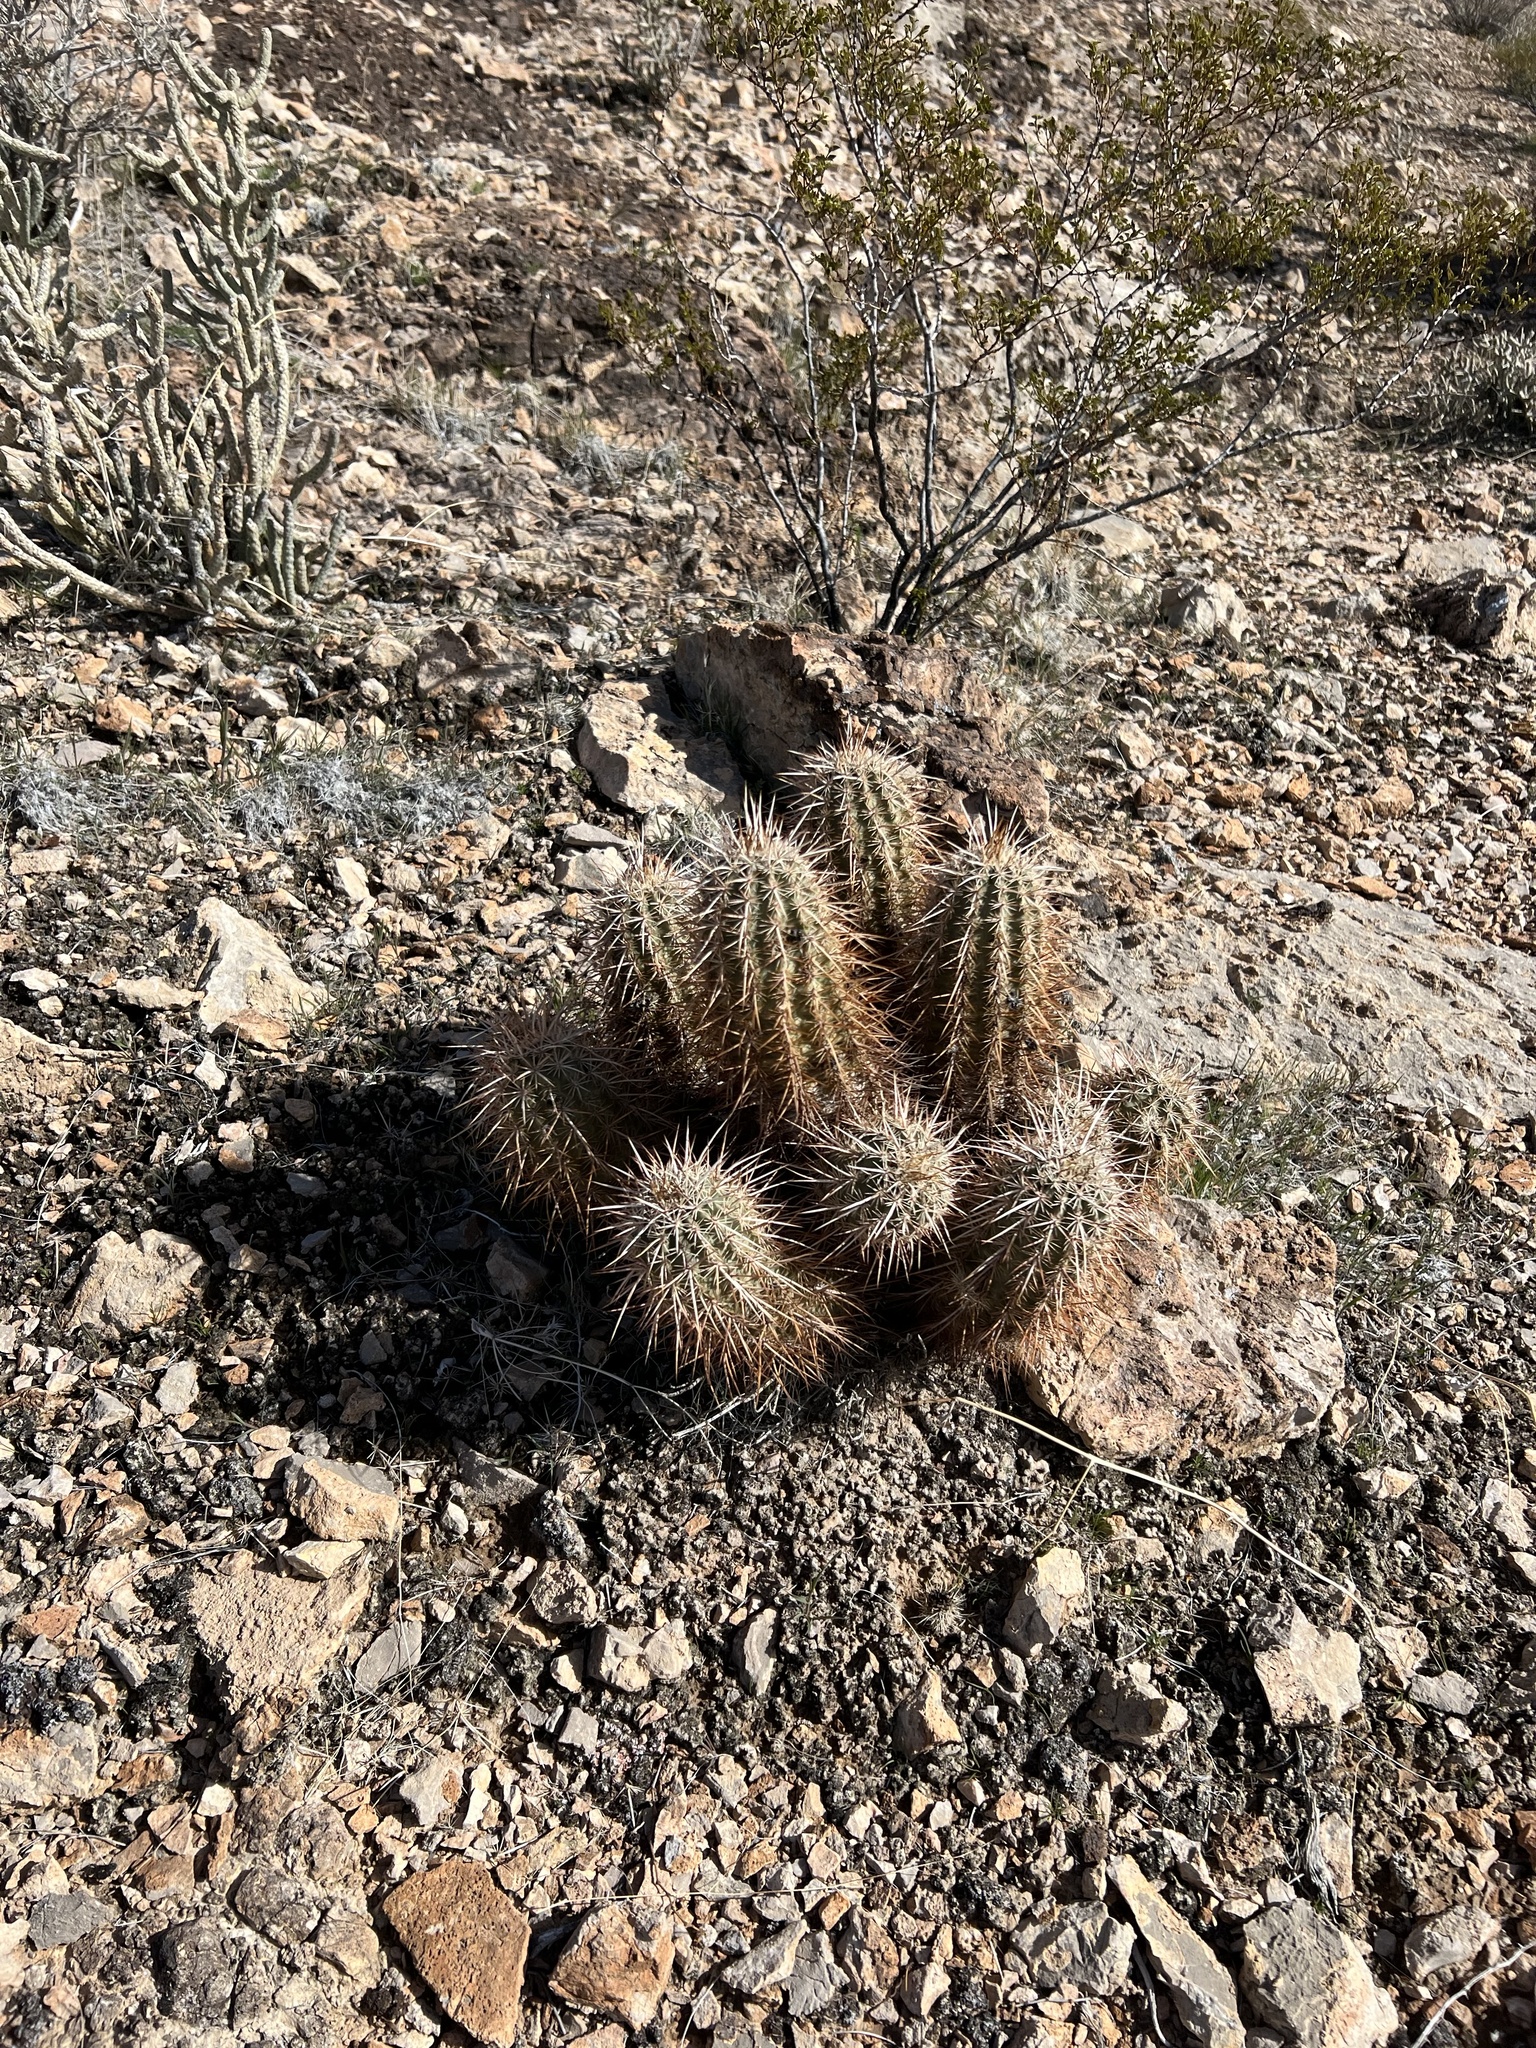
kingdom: Plantae
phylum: Tracheophyta
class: Magnoliopsida
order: Caryophyllales
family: Cactaceae
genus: Echinocereus
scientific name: Echinocereus engelmannii
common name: Engelmann's hedgehog cactus
